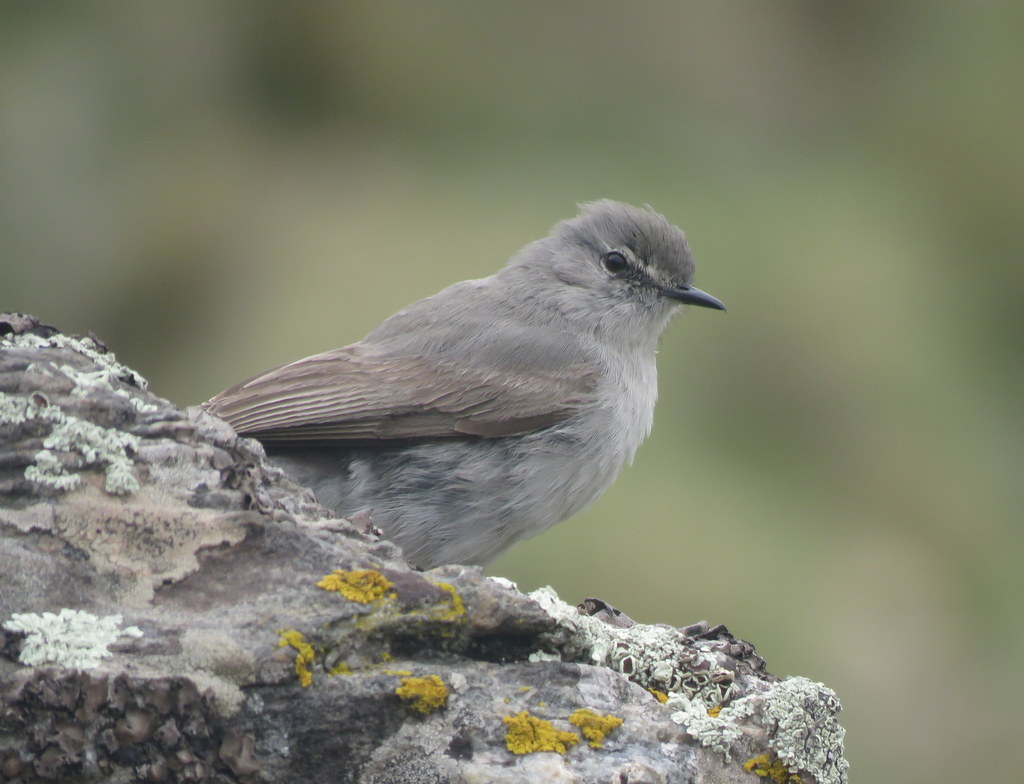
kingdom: Animalia
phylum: Chordata
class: Aves
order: Passeriformes
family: Tyrannidae
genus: Muscisaxicola
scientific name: Muscisaxicola cinereus
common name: Cinereous ground tyrant
